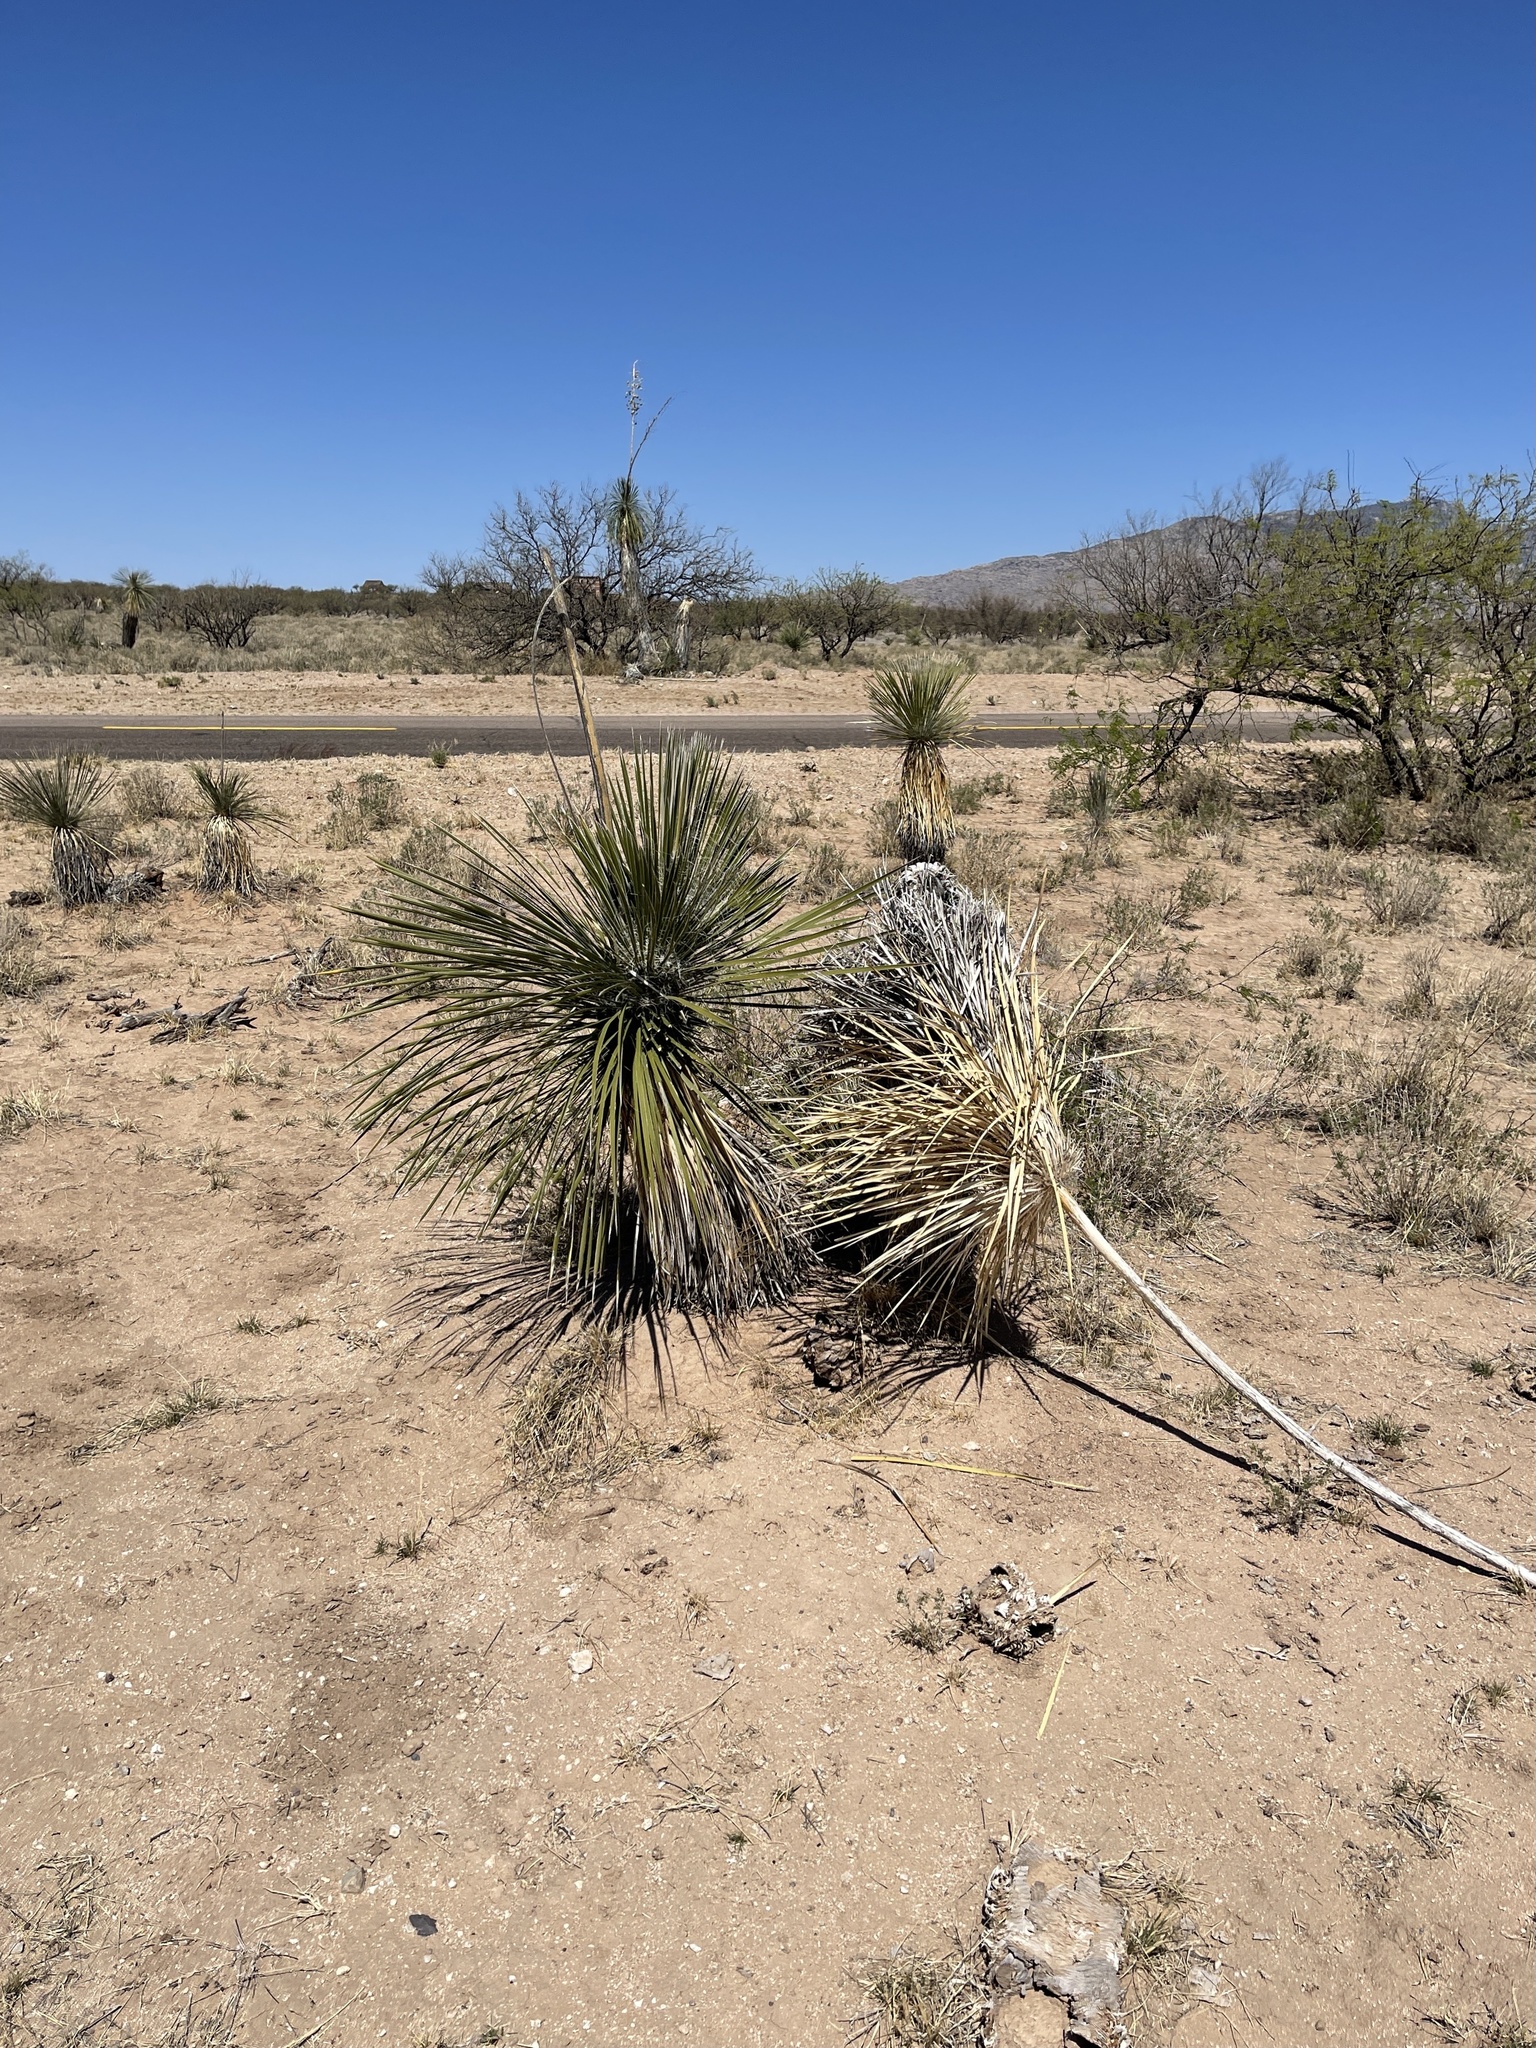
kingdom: Plantae
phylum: Tracheophyta
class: Liliopsida
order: Asparagales
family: Asparagaceae
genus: Yucca
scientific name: Yucca elata
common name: Palmella
